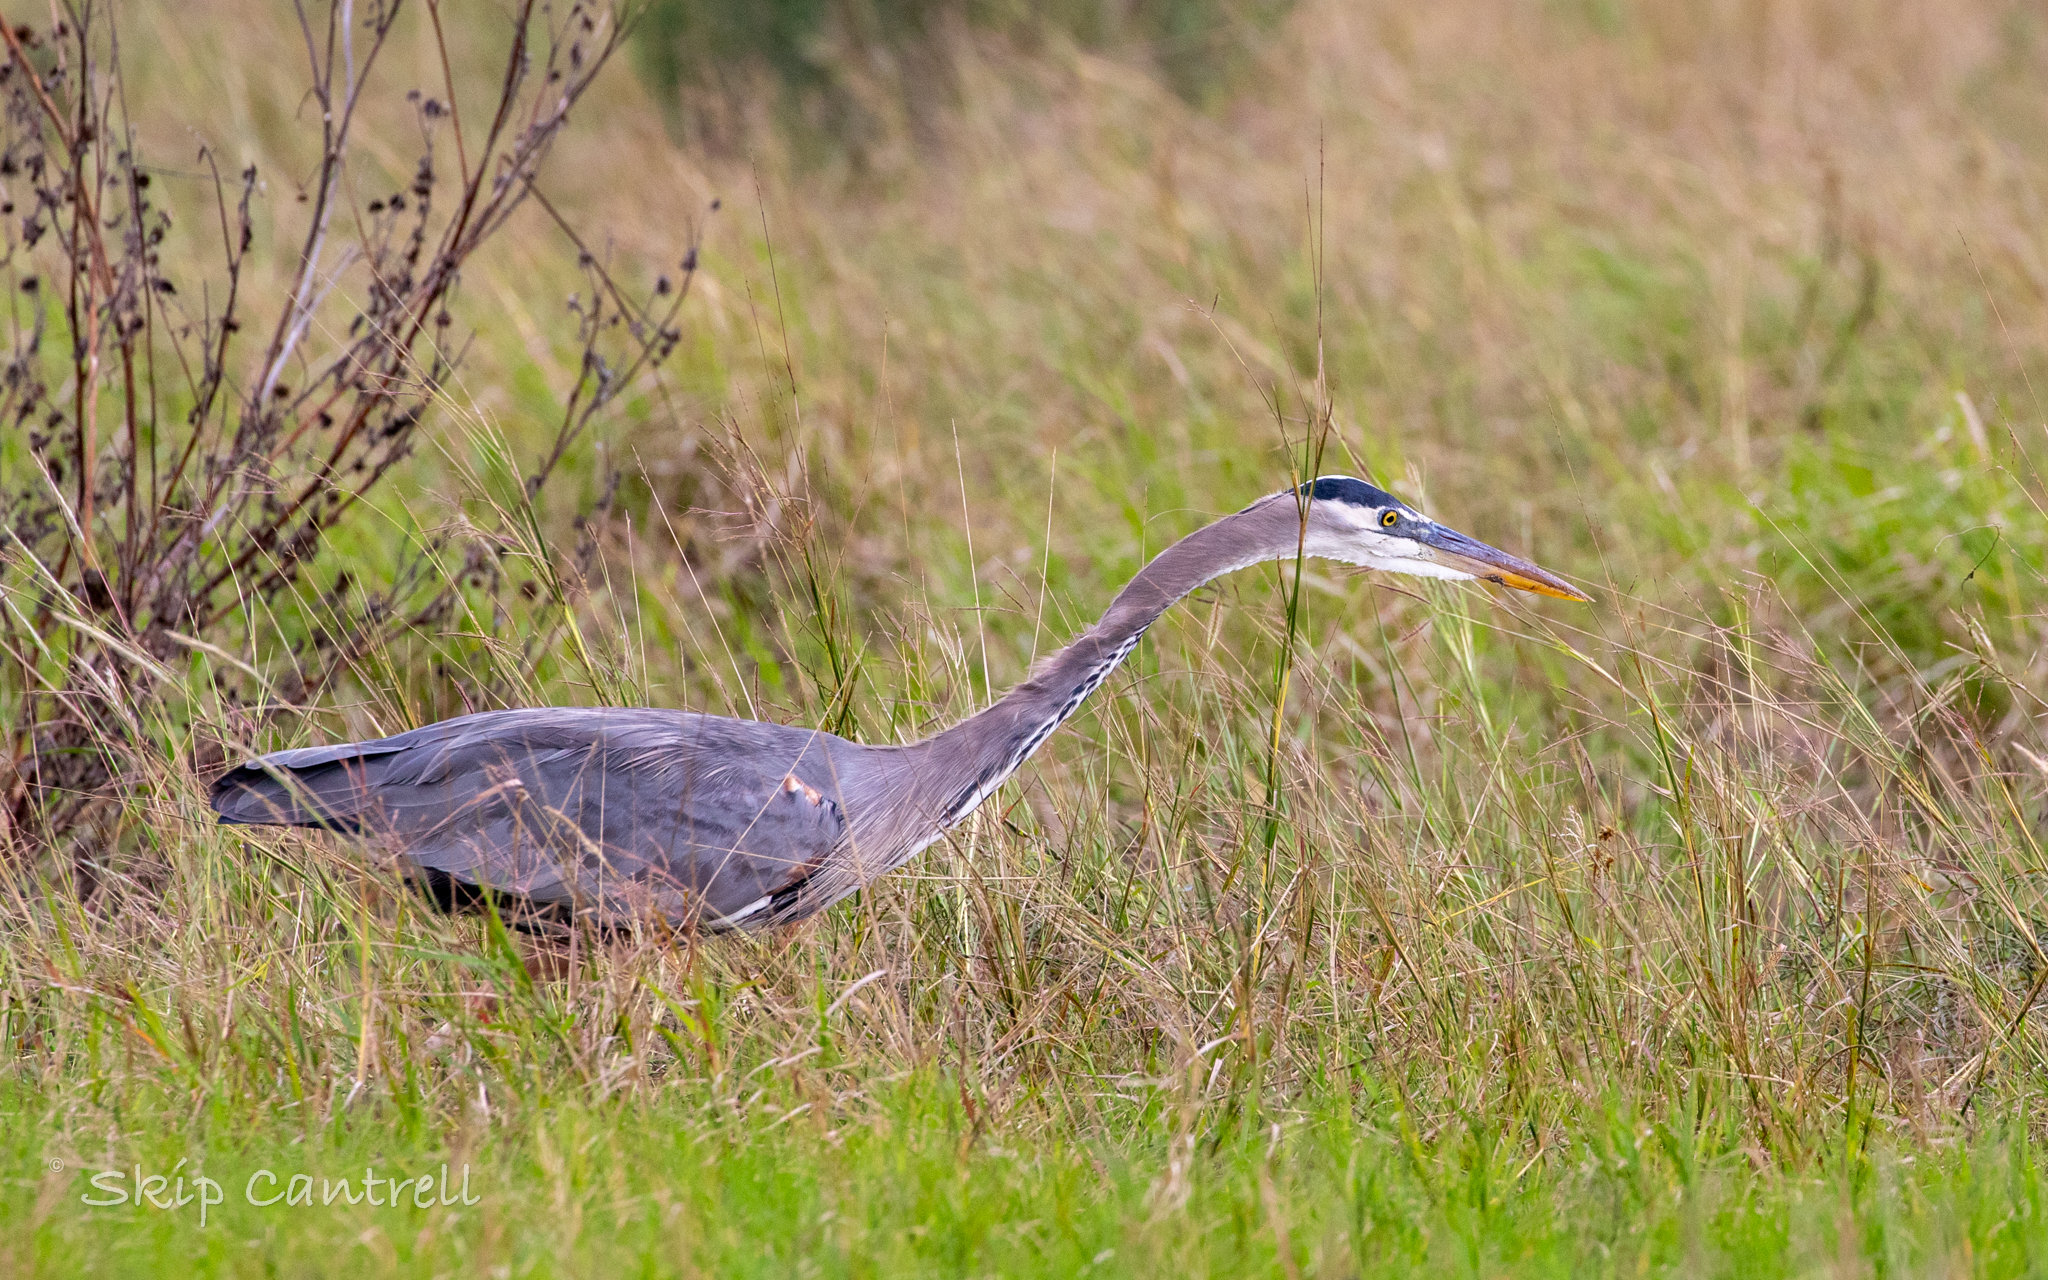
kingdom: Animalia
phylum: Chordata
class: Aves
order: Pelecaniformes
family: Ardeidae
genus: Ardea
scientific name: Ardea herodias
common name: Great blue heron
